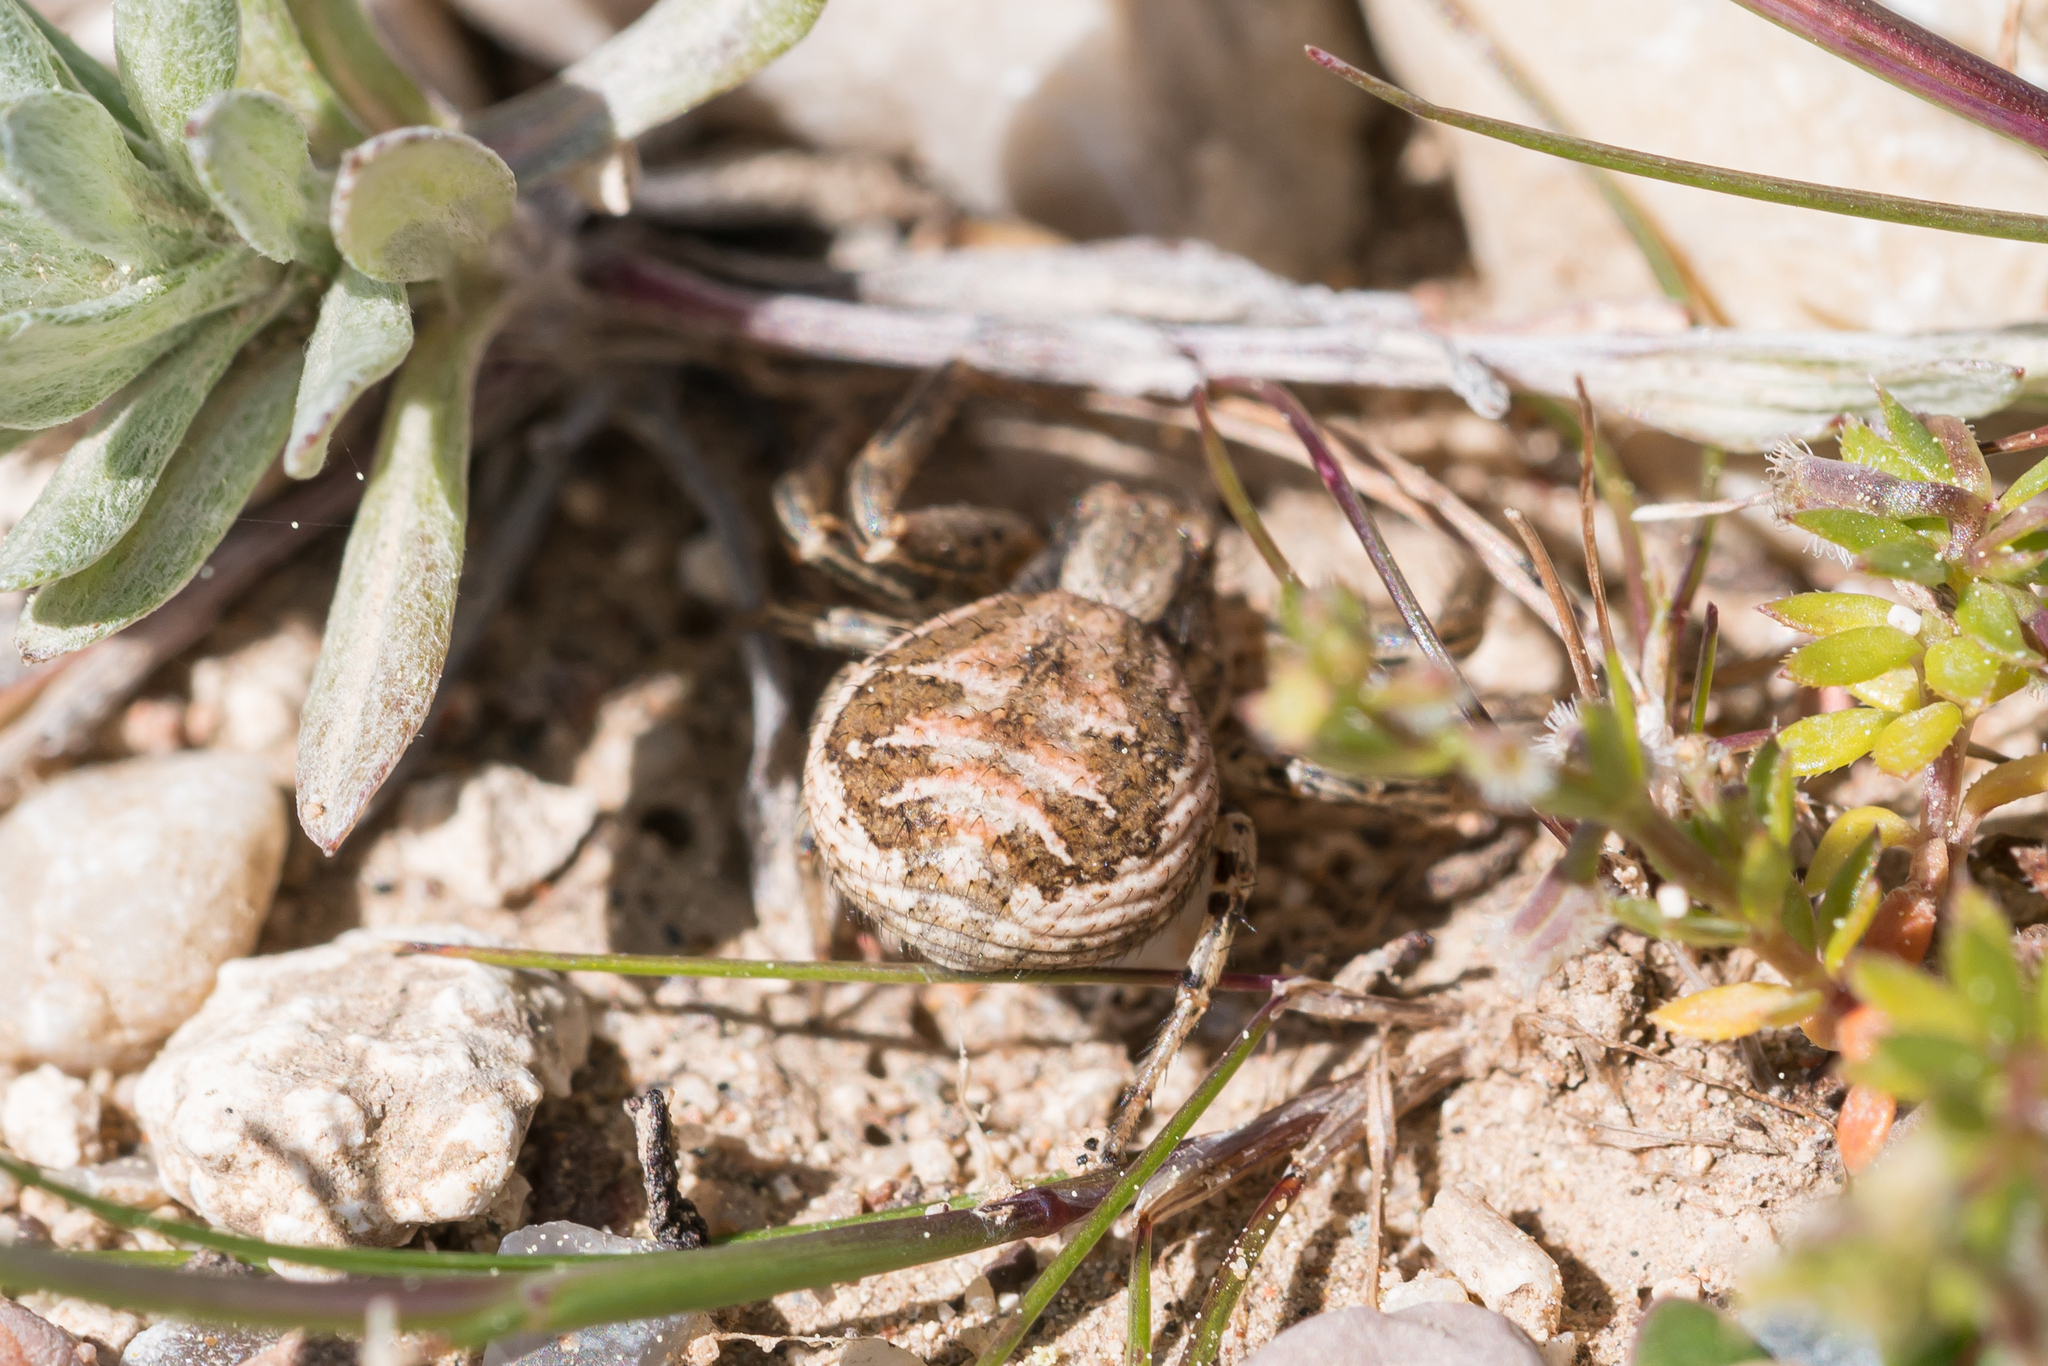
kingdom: Animalia
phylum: Arthropoda
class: Arachnida
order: Araneae
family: Thomisidae
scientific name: Thomisidae
